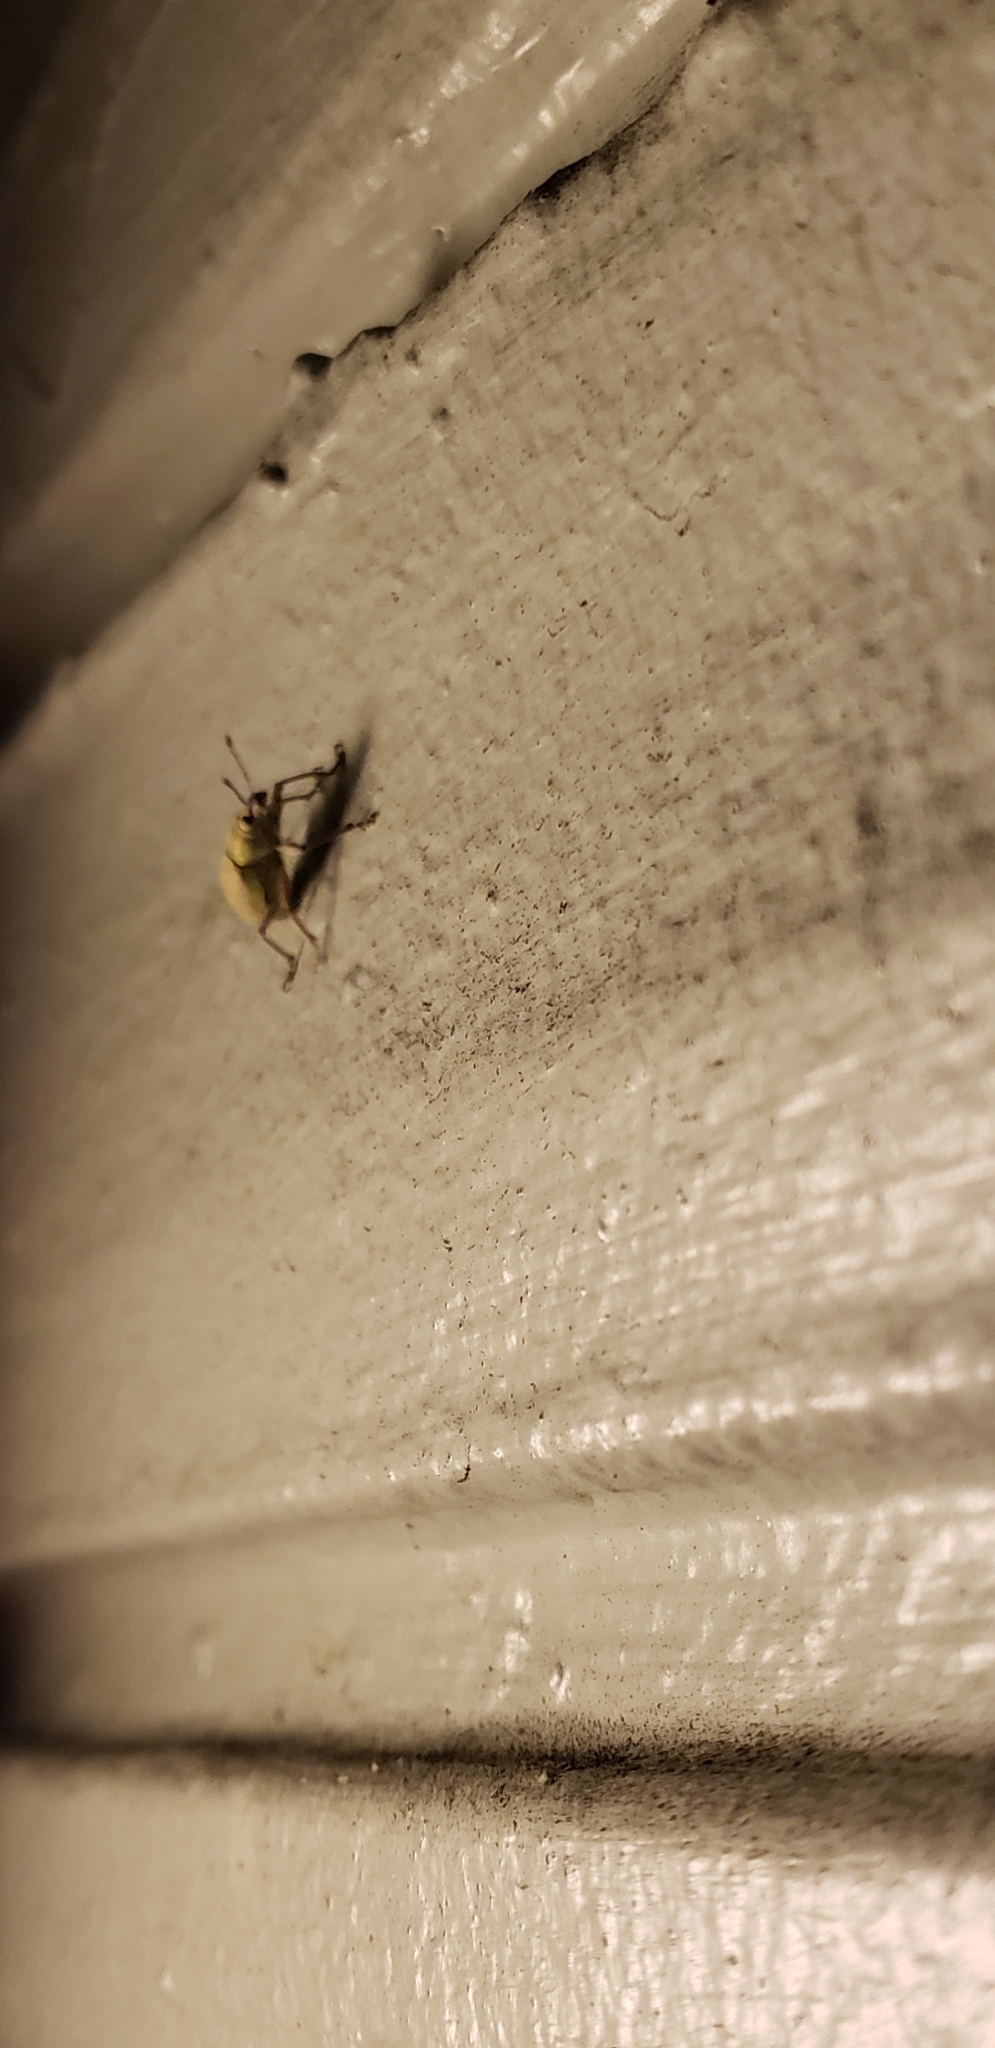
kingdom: Animalia
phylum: Arthropoda
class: Insecta
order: Coleoptera
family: Curculionidae
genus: Pachnaeus
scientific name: Pachnaeus litus
